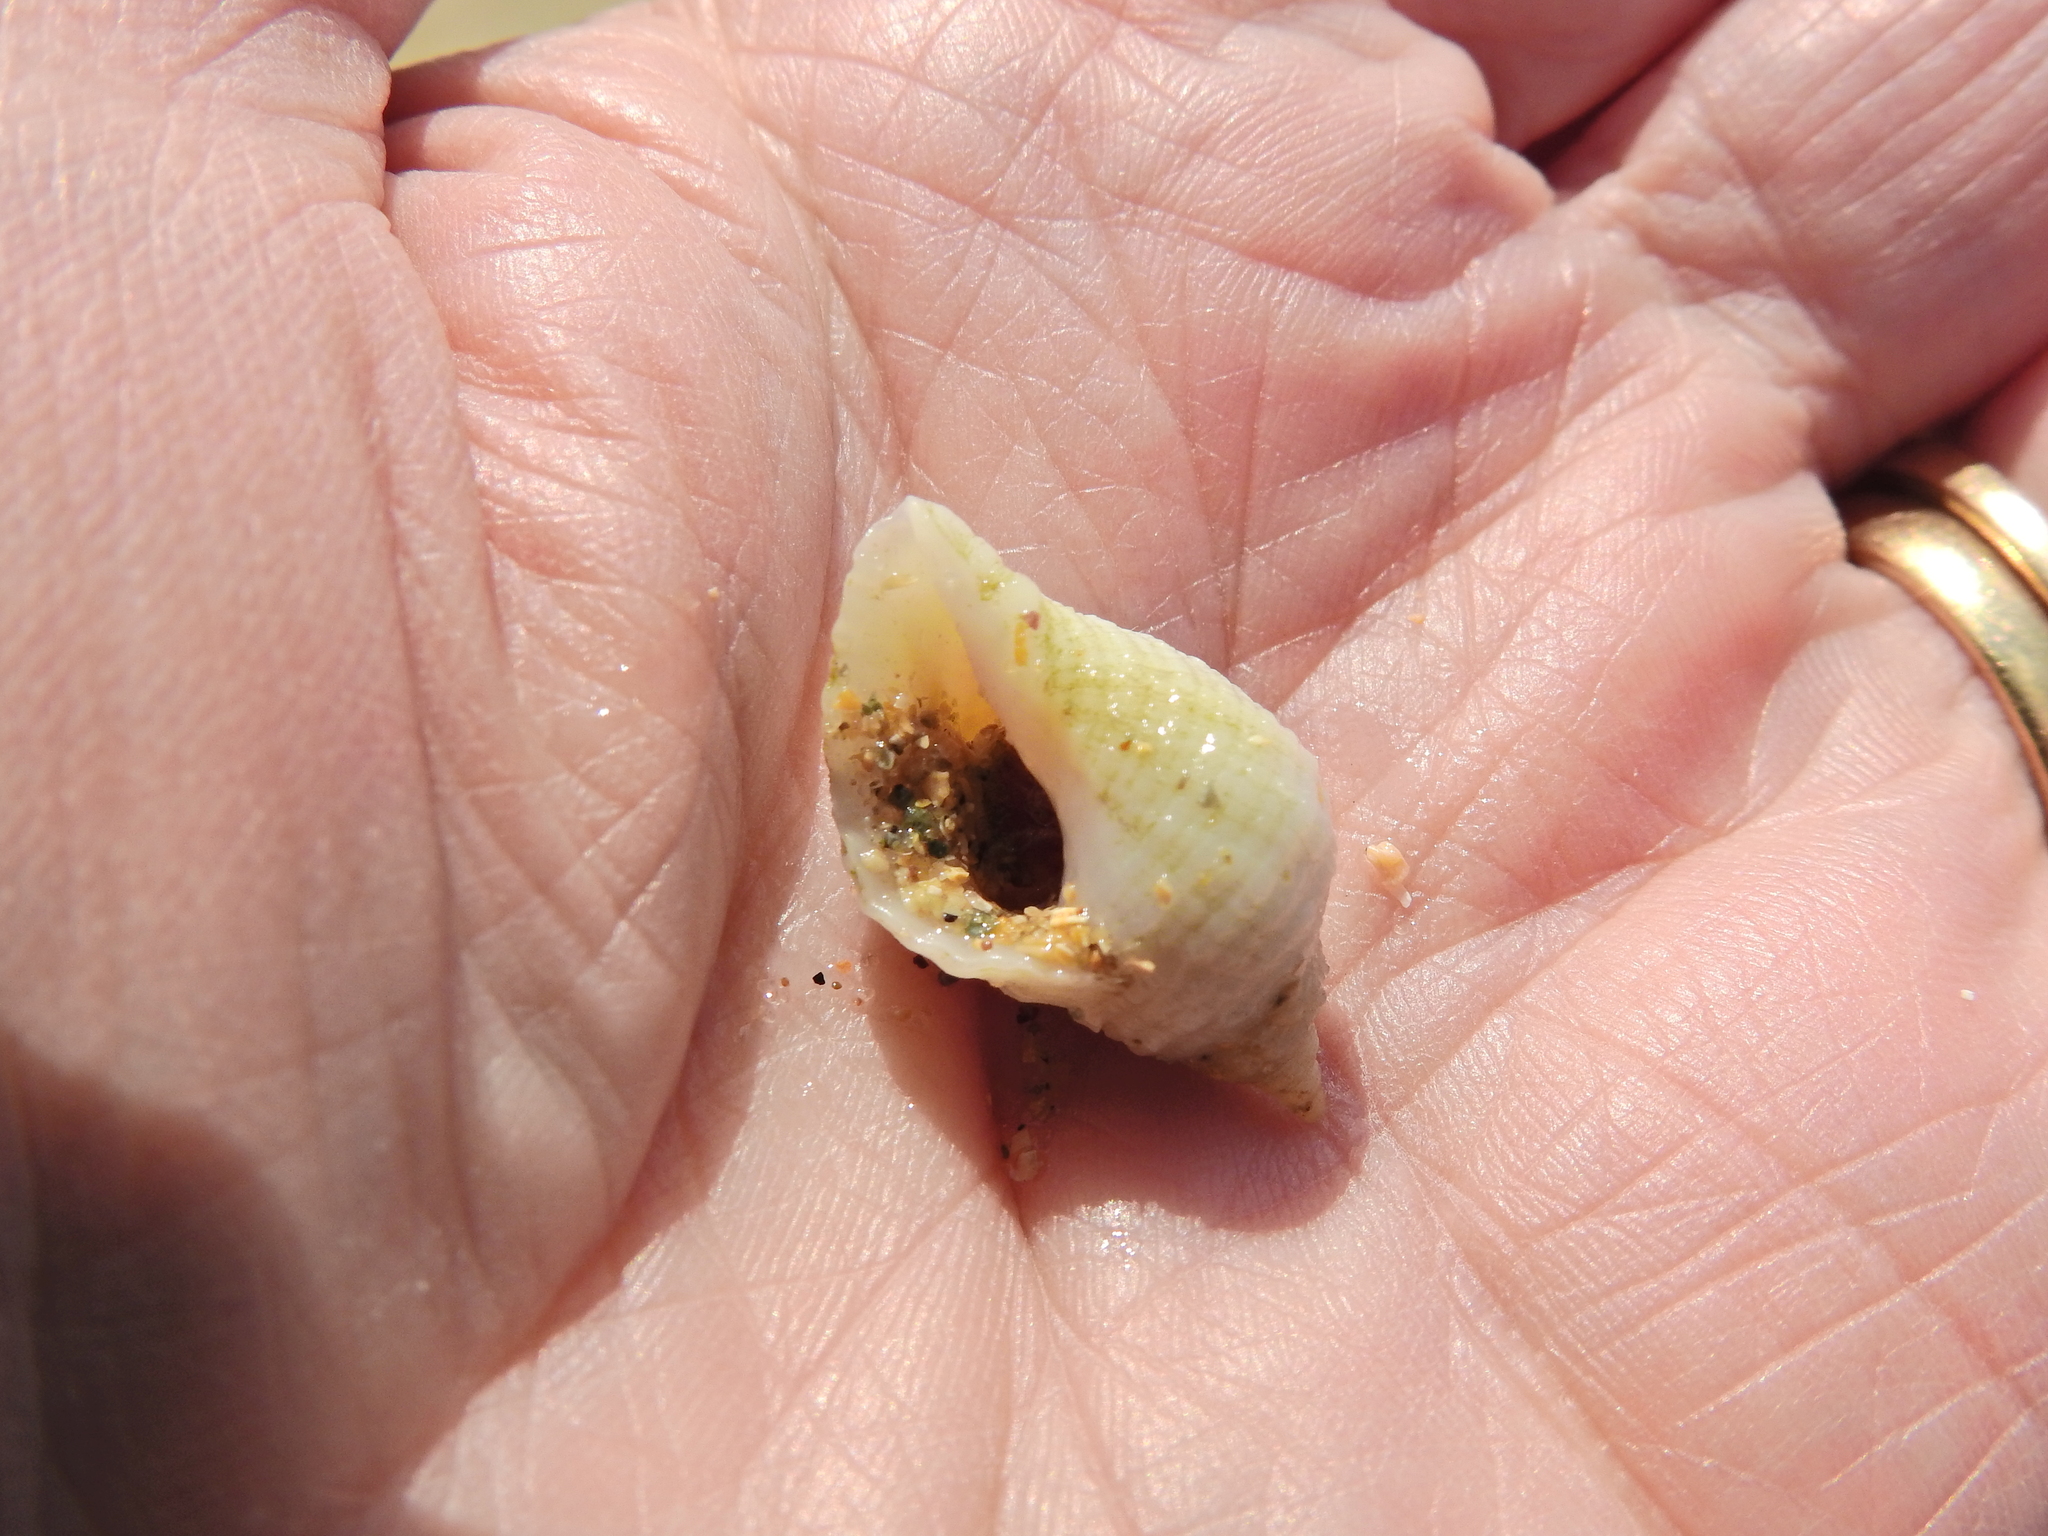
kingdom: Animalia
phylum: Mollusca
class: Gastropoda
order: Neogastropoda
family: Muricidae
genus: Nucella
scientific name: Nucella lapillus
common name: Dog whelk
